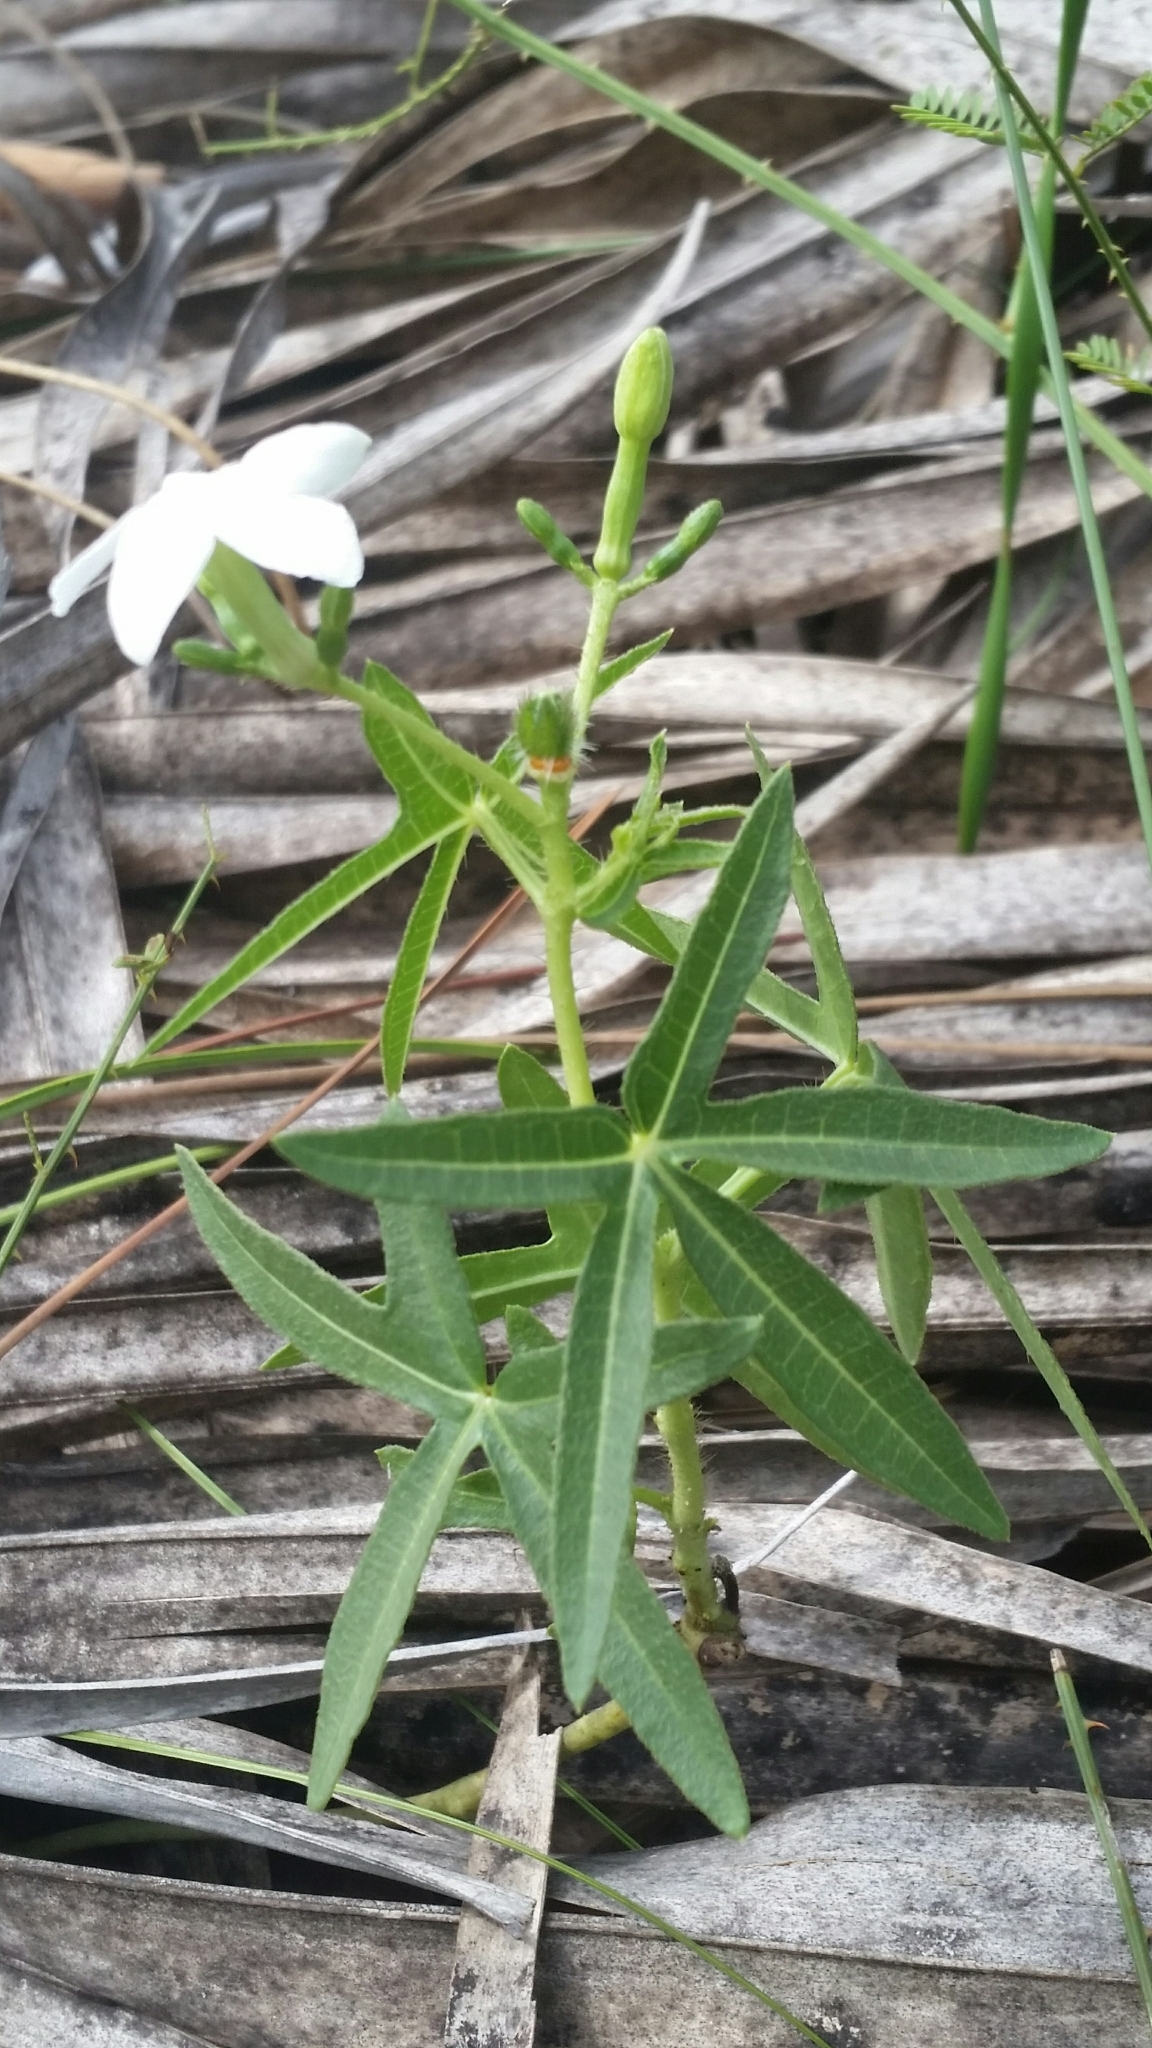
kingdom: Plantae
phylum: Tracheophyta
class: Magnoliopsida
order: Malpighiales
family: Euphorbiaceae
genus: Cnidoscolus
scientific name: Cnidoscolus stimulosus
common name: Bull-nettle
